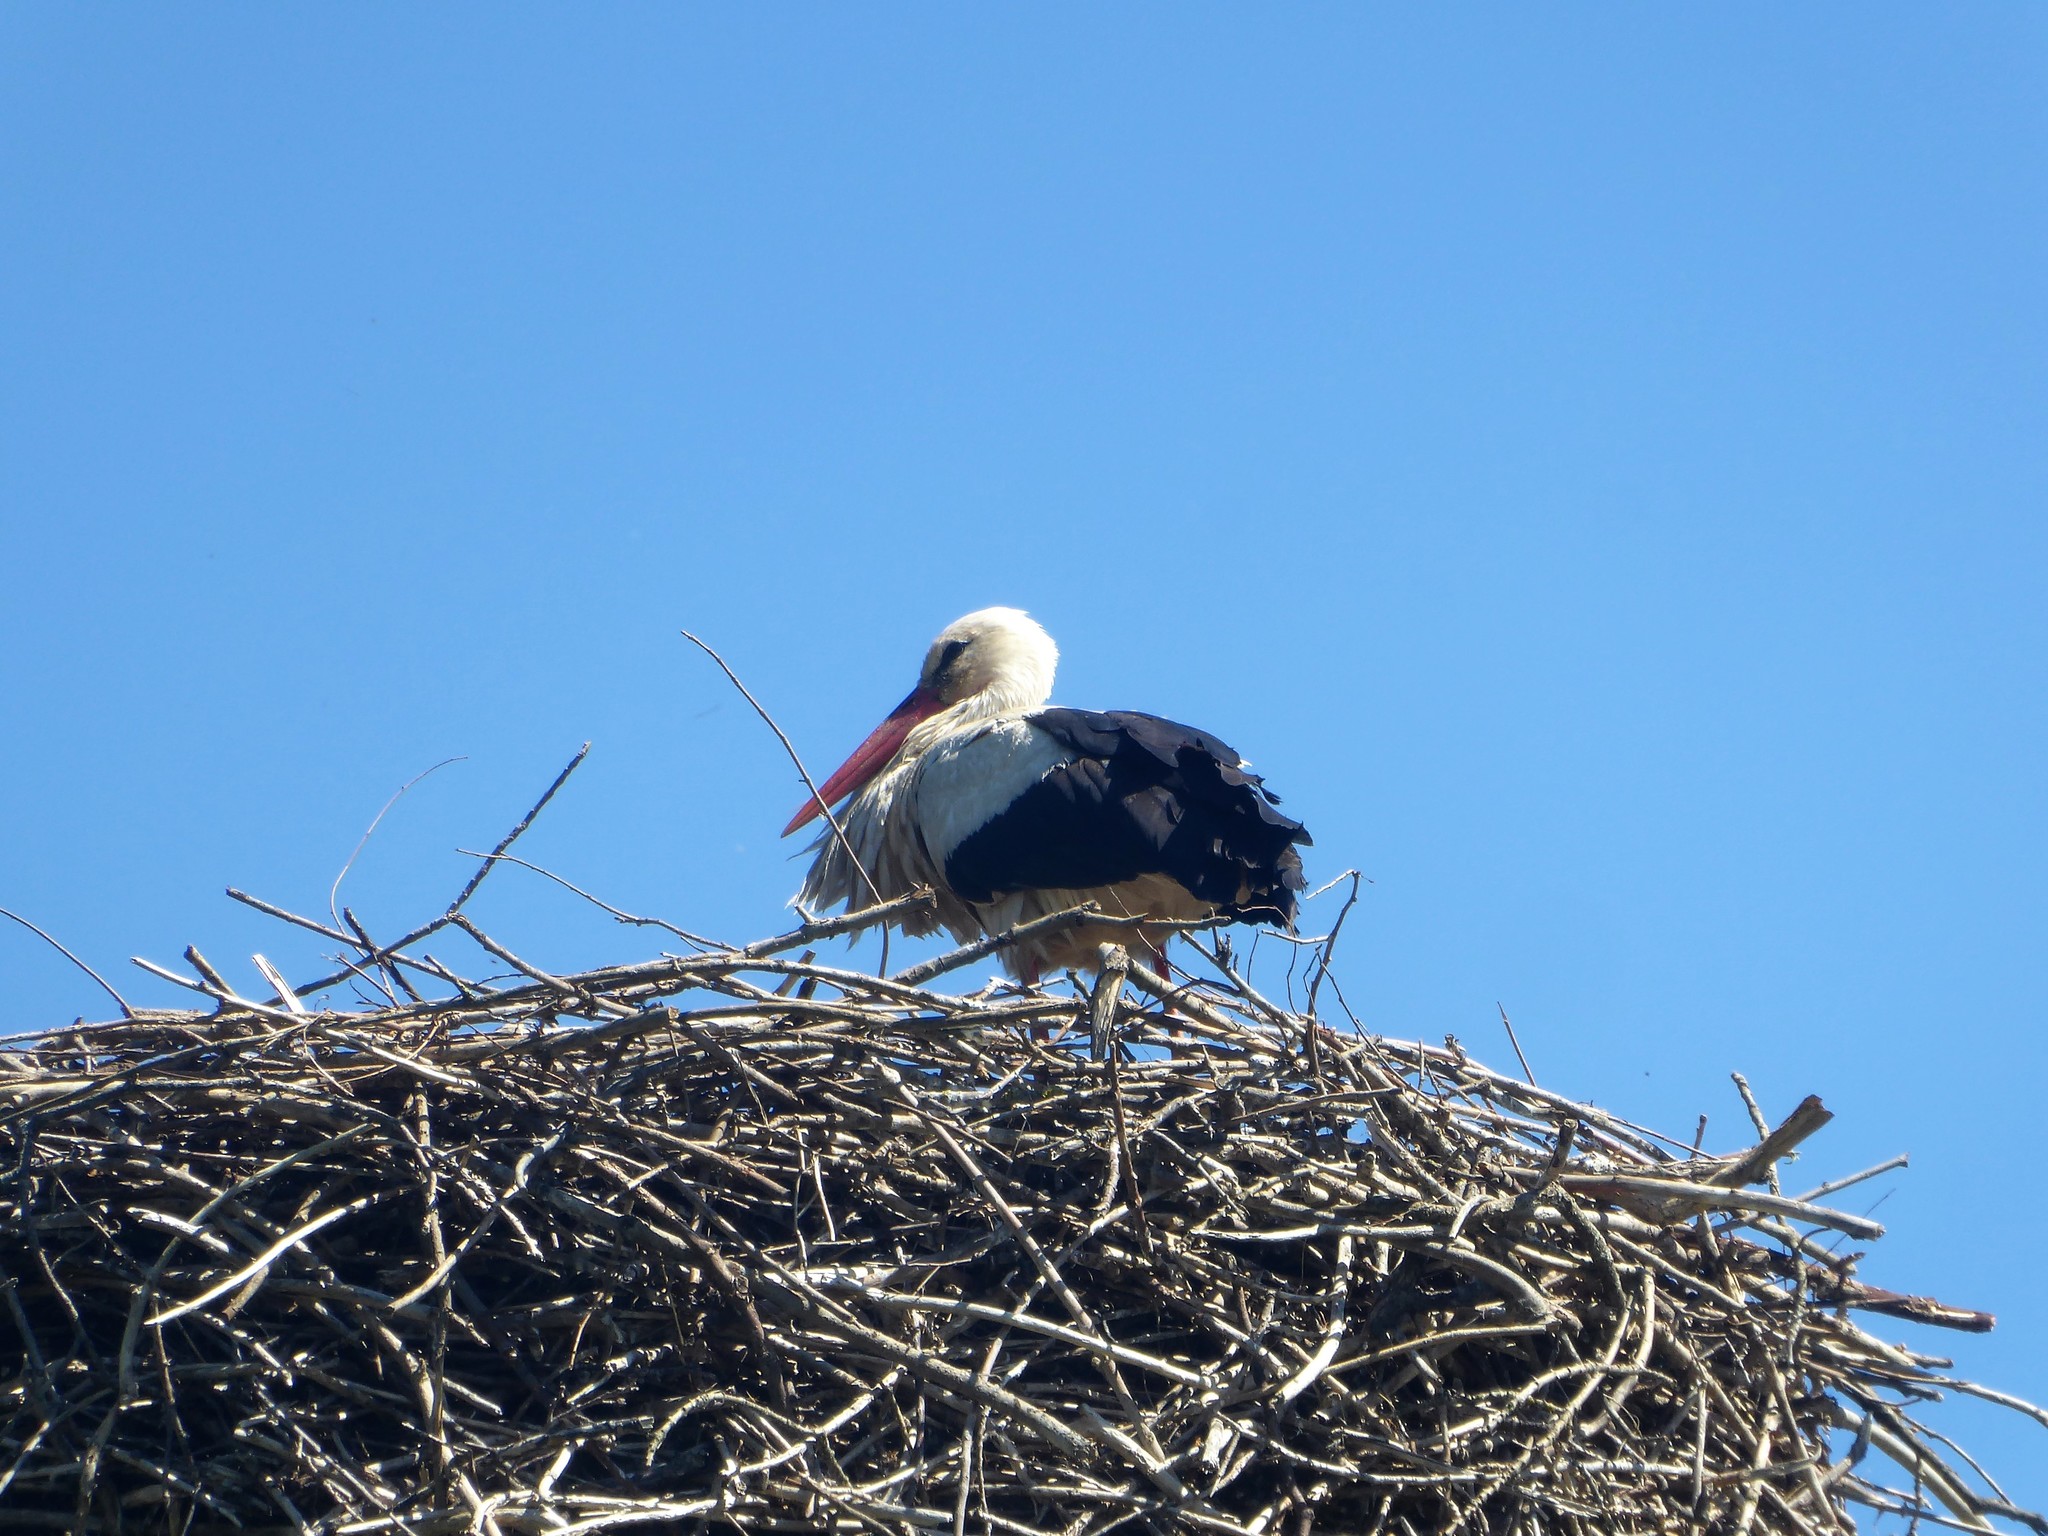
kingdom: Animalia
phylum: Chordata
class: Aves
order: Ciconiiformes
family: Ciconiidae
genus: Ciconia
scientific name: Ciconia ciconia
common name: White stork
